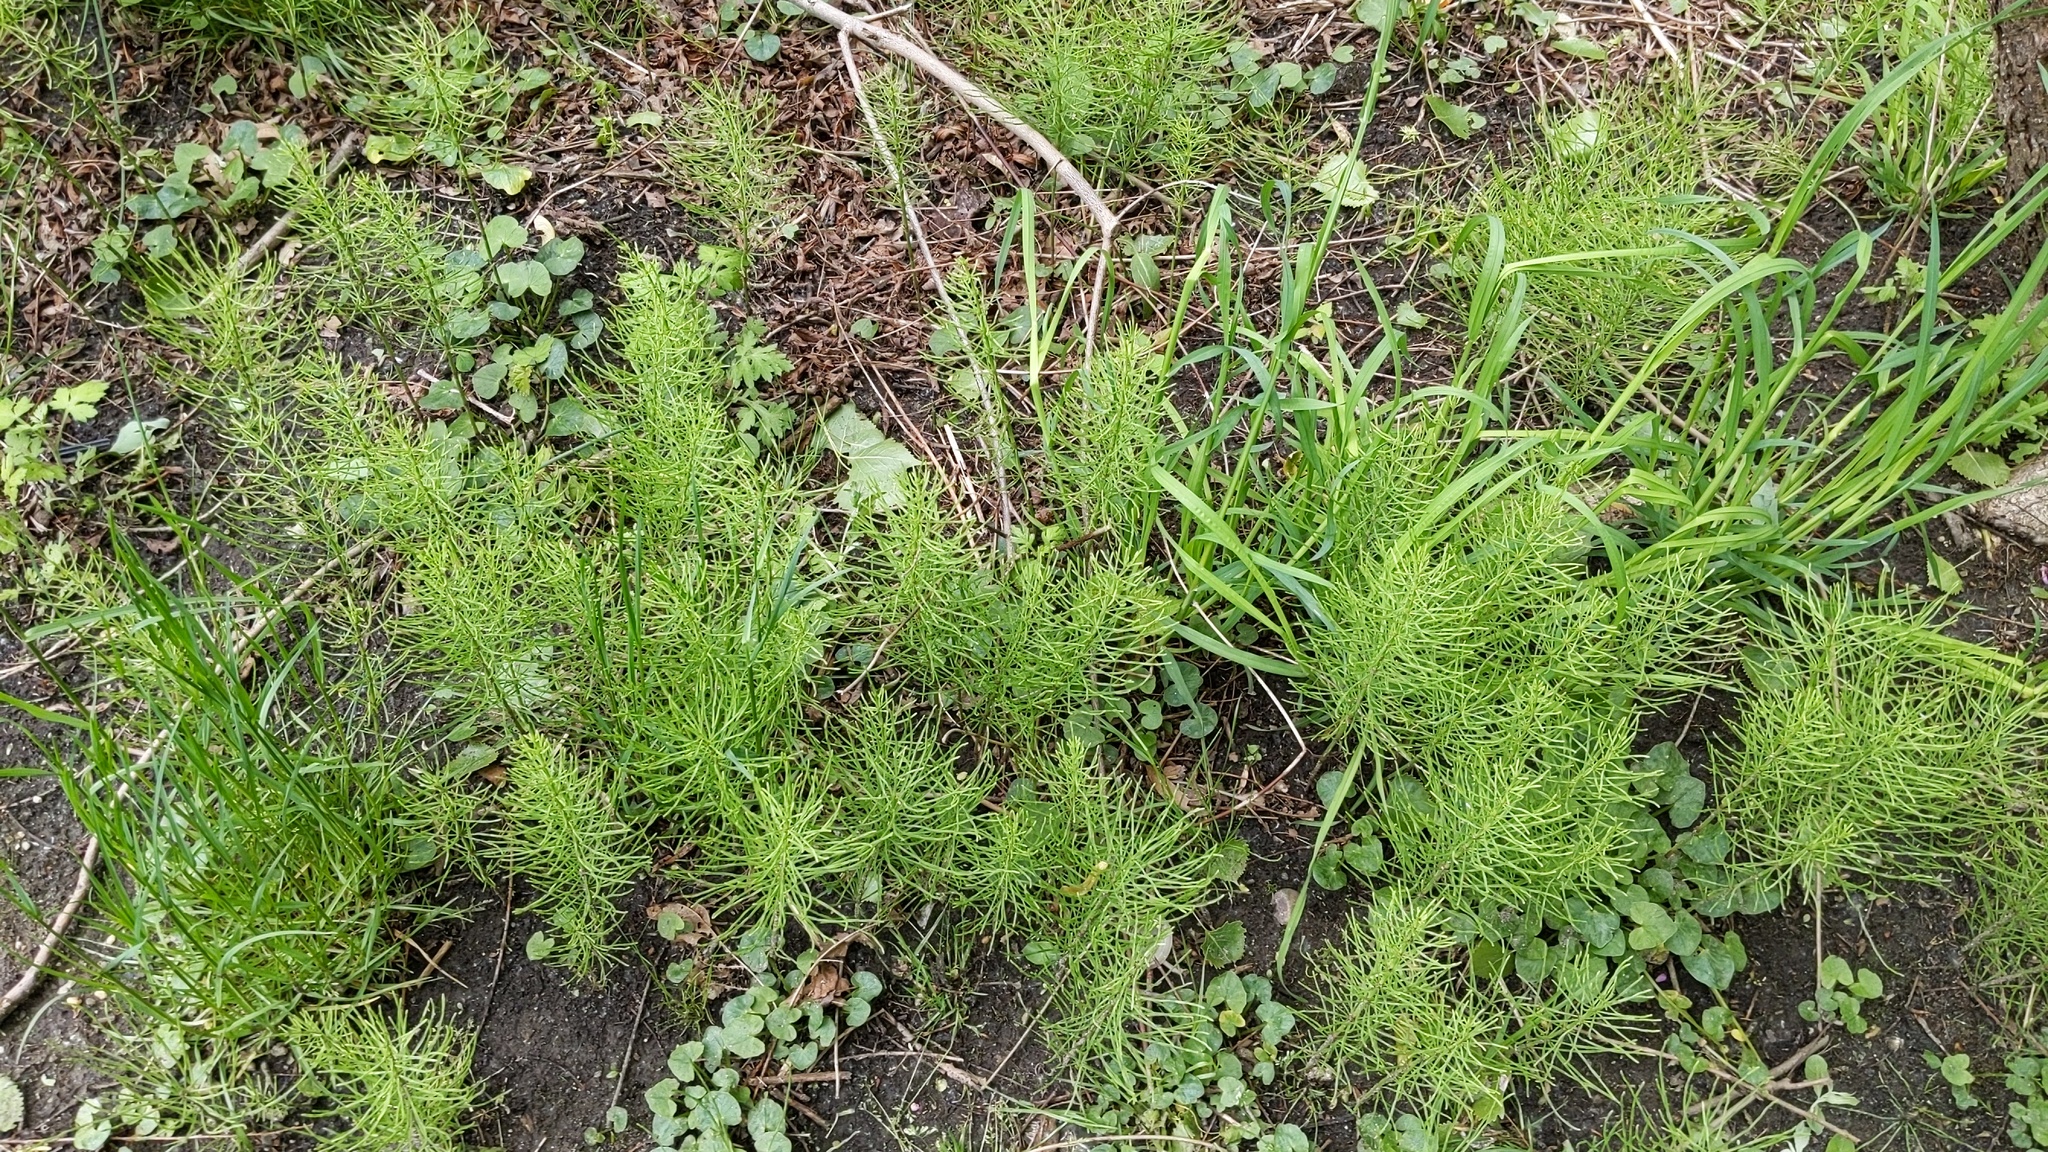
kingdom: Plantae
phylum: Tracheophyta
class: Polypodiopsida
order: Equisetales
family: Equisetaceae
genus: Equisetum
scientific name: Equisetum arvense
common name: Field horsetail
